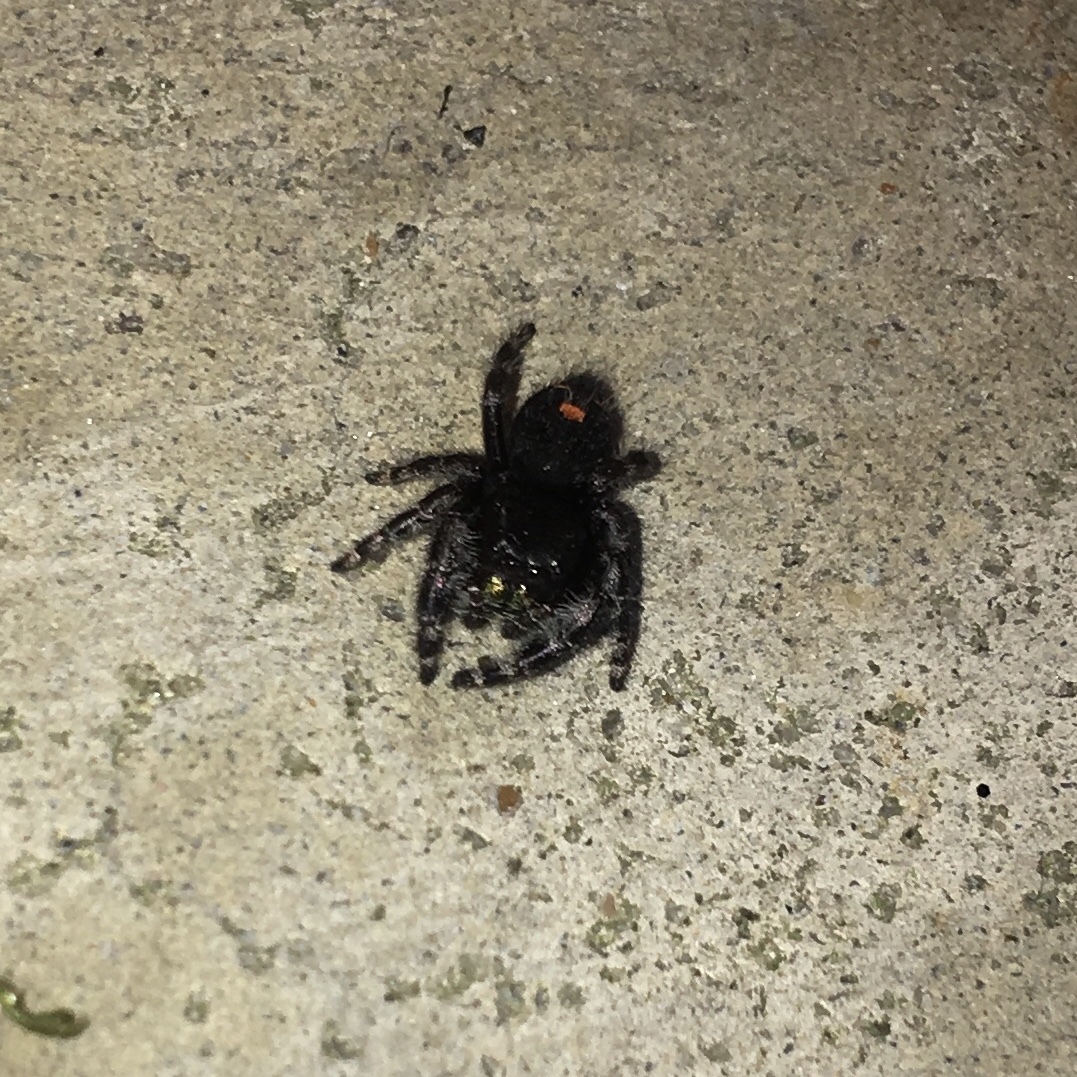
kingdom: Animalia
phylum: Arthropoda
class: Arachnida
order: Araneae
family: Salticidae
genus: Phidippus
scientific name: Phidippus audax
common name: Bold jumper
